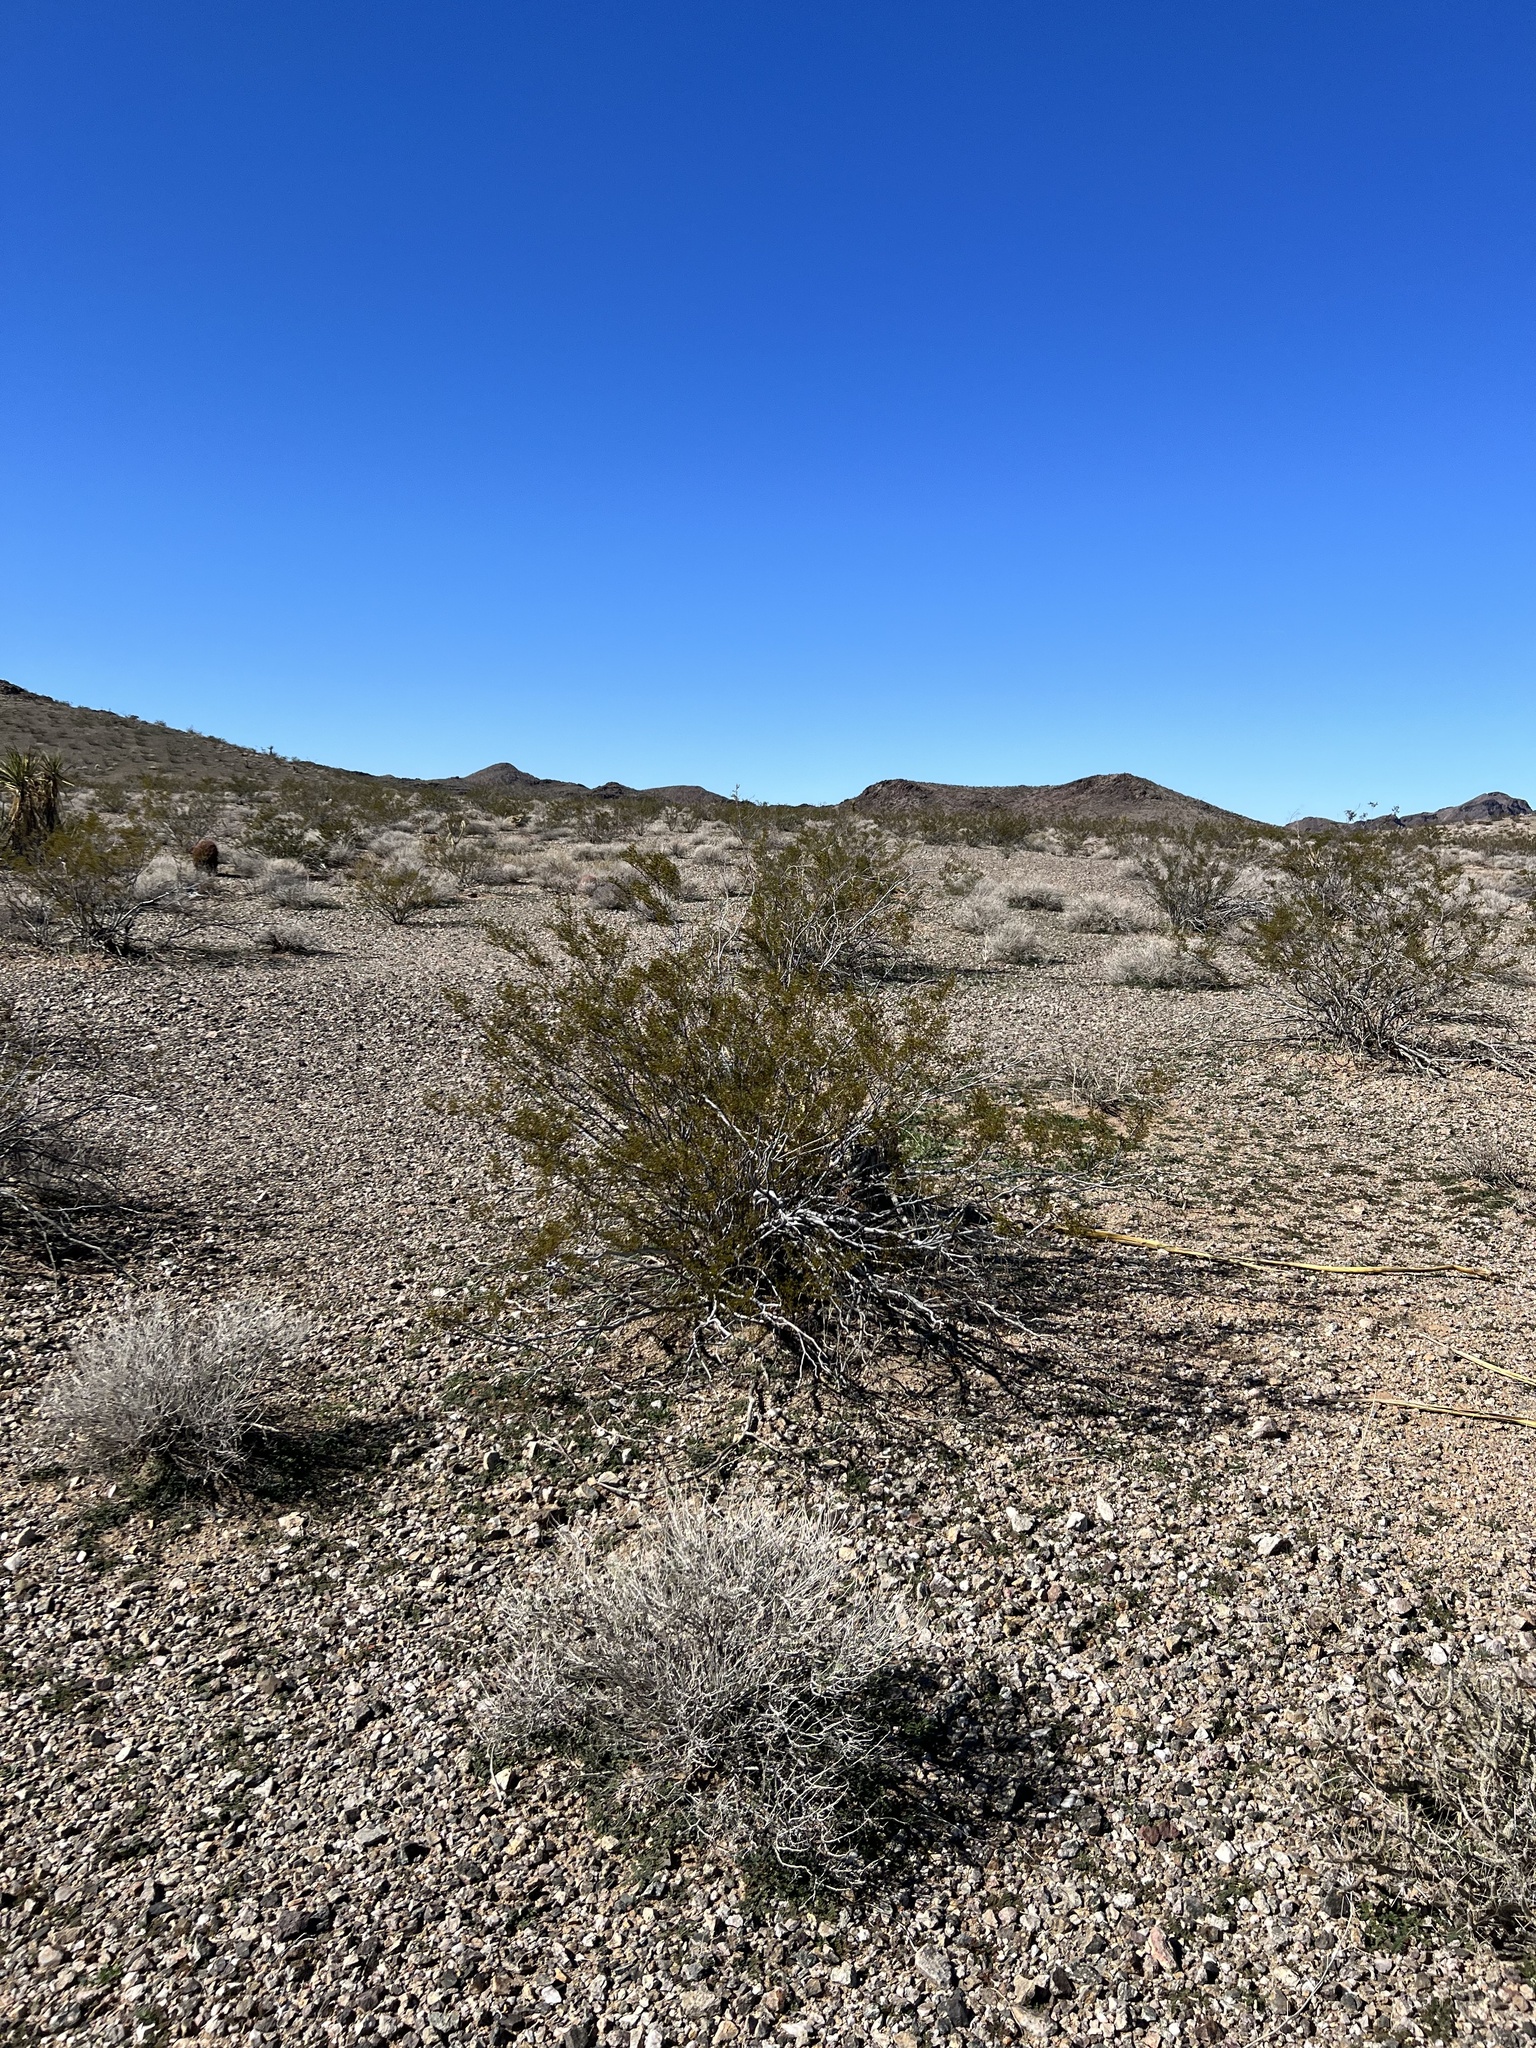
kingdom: Plantae
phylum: Tracheophyta
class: Magnoliopsida
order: Zygophyllales
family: Zygophyllaceae
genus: Larrea
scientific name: Larrea tridentata
